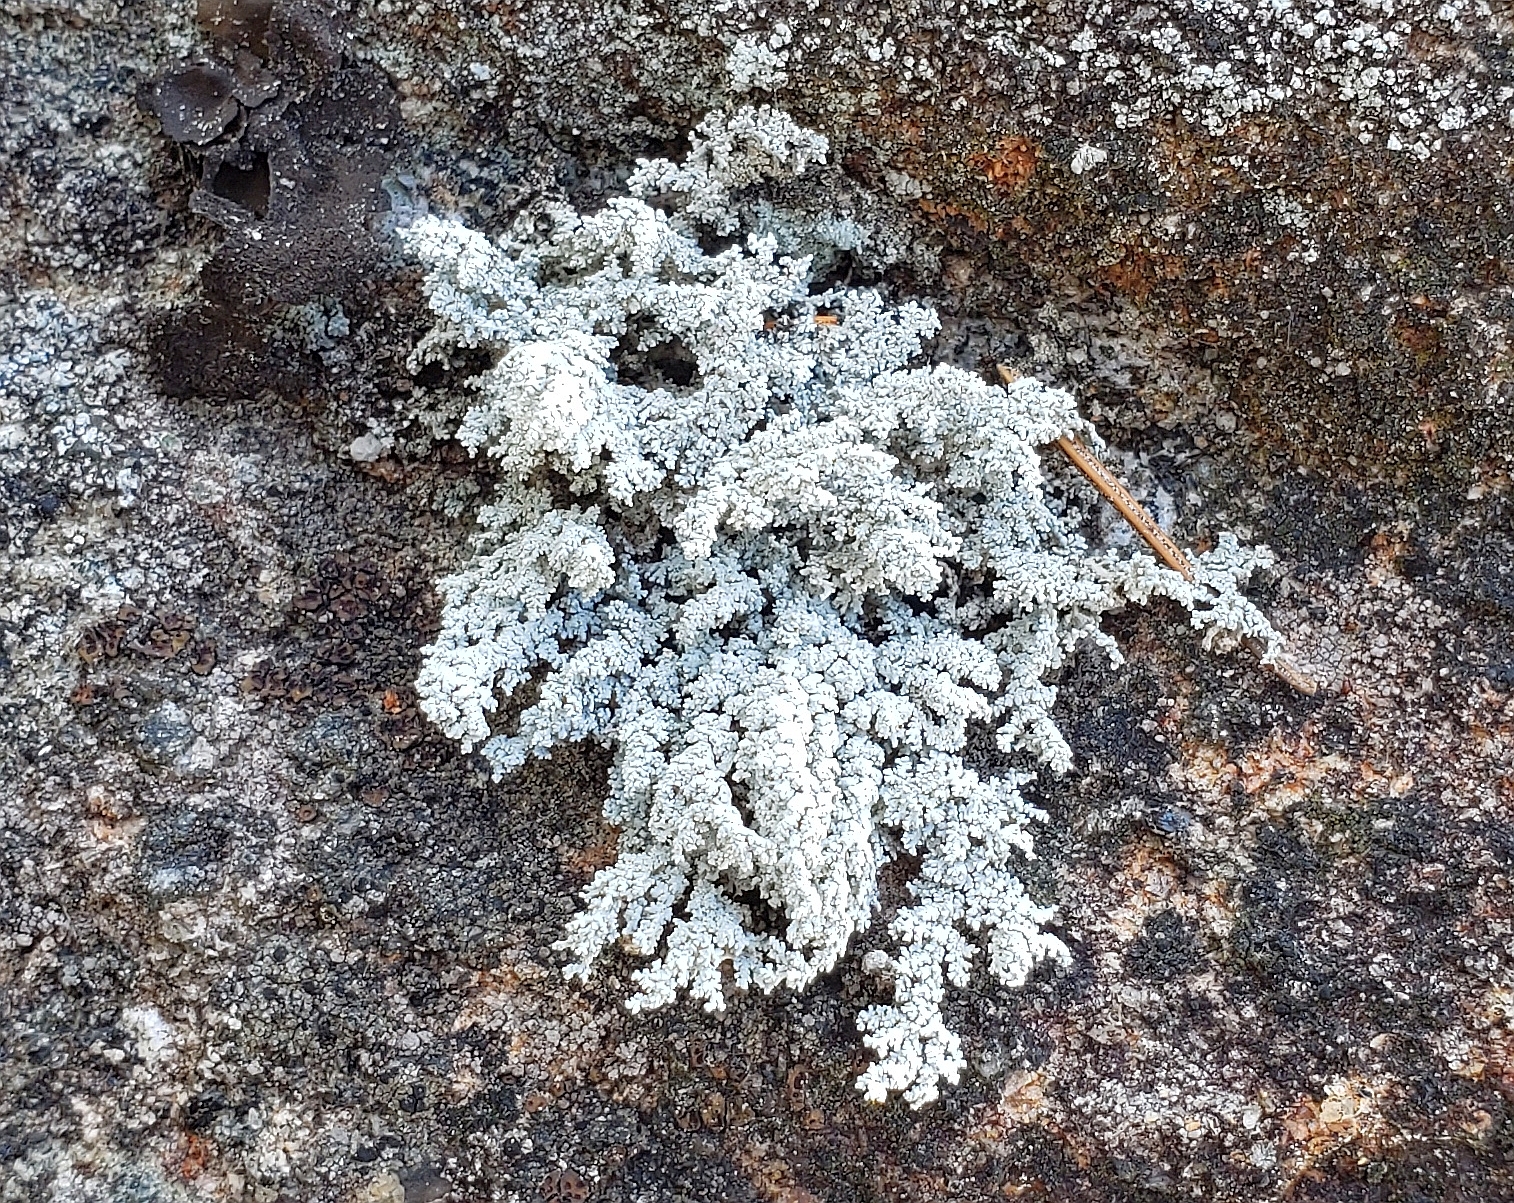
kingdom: Fungi
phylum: Ascomycota
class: Lecanoromycetes
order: Lecanorales
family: Stereocaulaceae
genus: Stereocaulon
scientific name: Stereocaulon saxatile
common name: Rock foam
